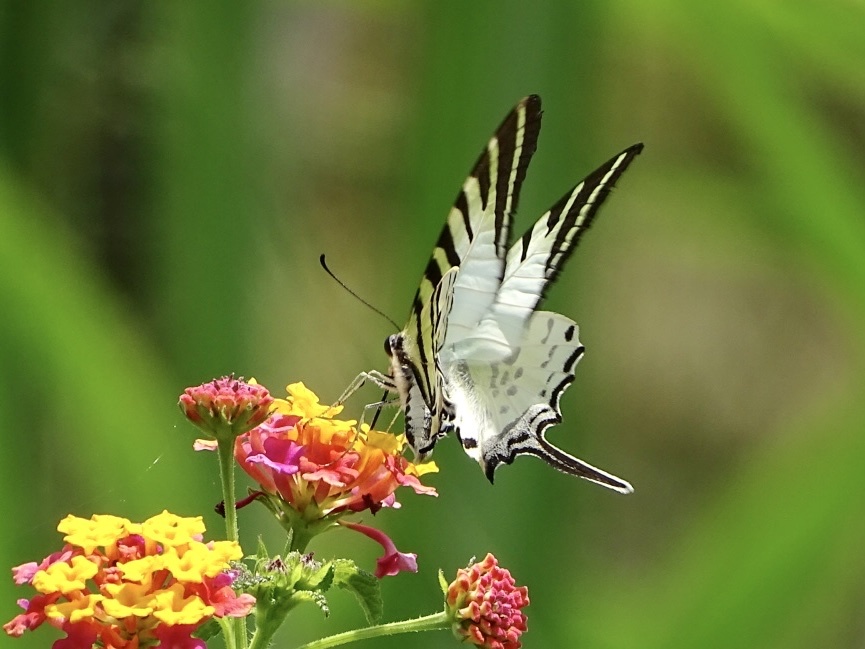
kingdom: Animalia
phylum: Arthropoda
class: Insecta
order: Lepidoptera
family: Papilionidae
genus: Graphium
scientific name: Graphium antiphates
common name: Fivebar swordtail
